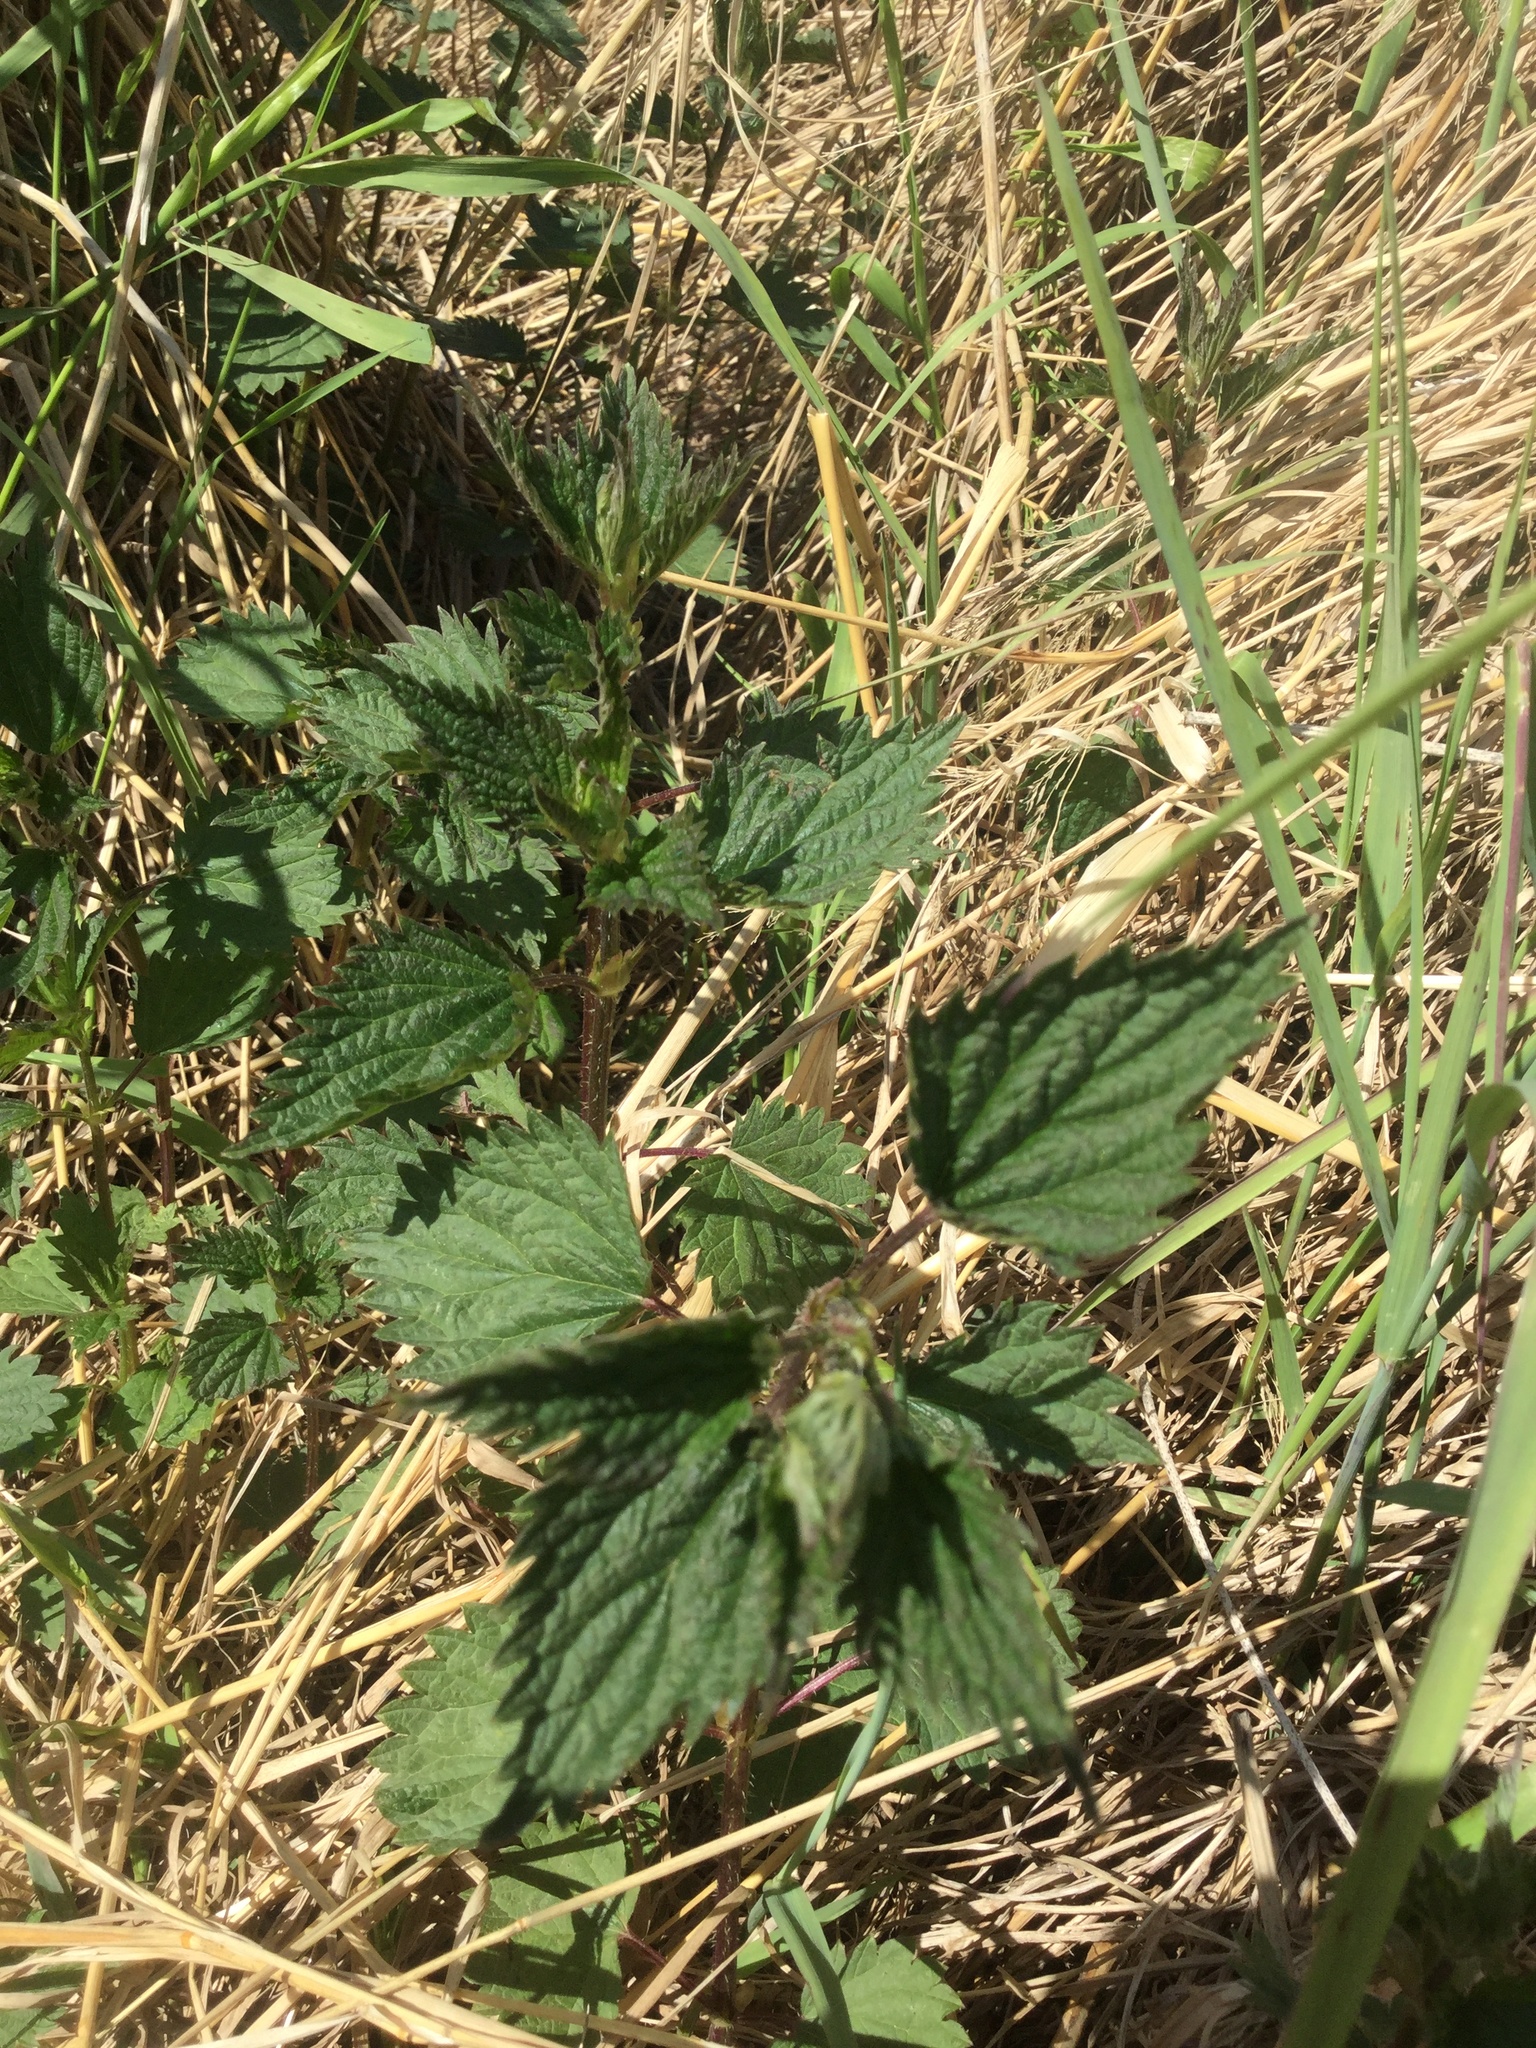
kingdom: Plantae
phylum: Tracheophyta
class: Magnoliopsida
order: Rosales
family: Urticaceae
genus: Urtica
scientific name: Urtica dioica
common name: Common nettle
